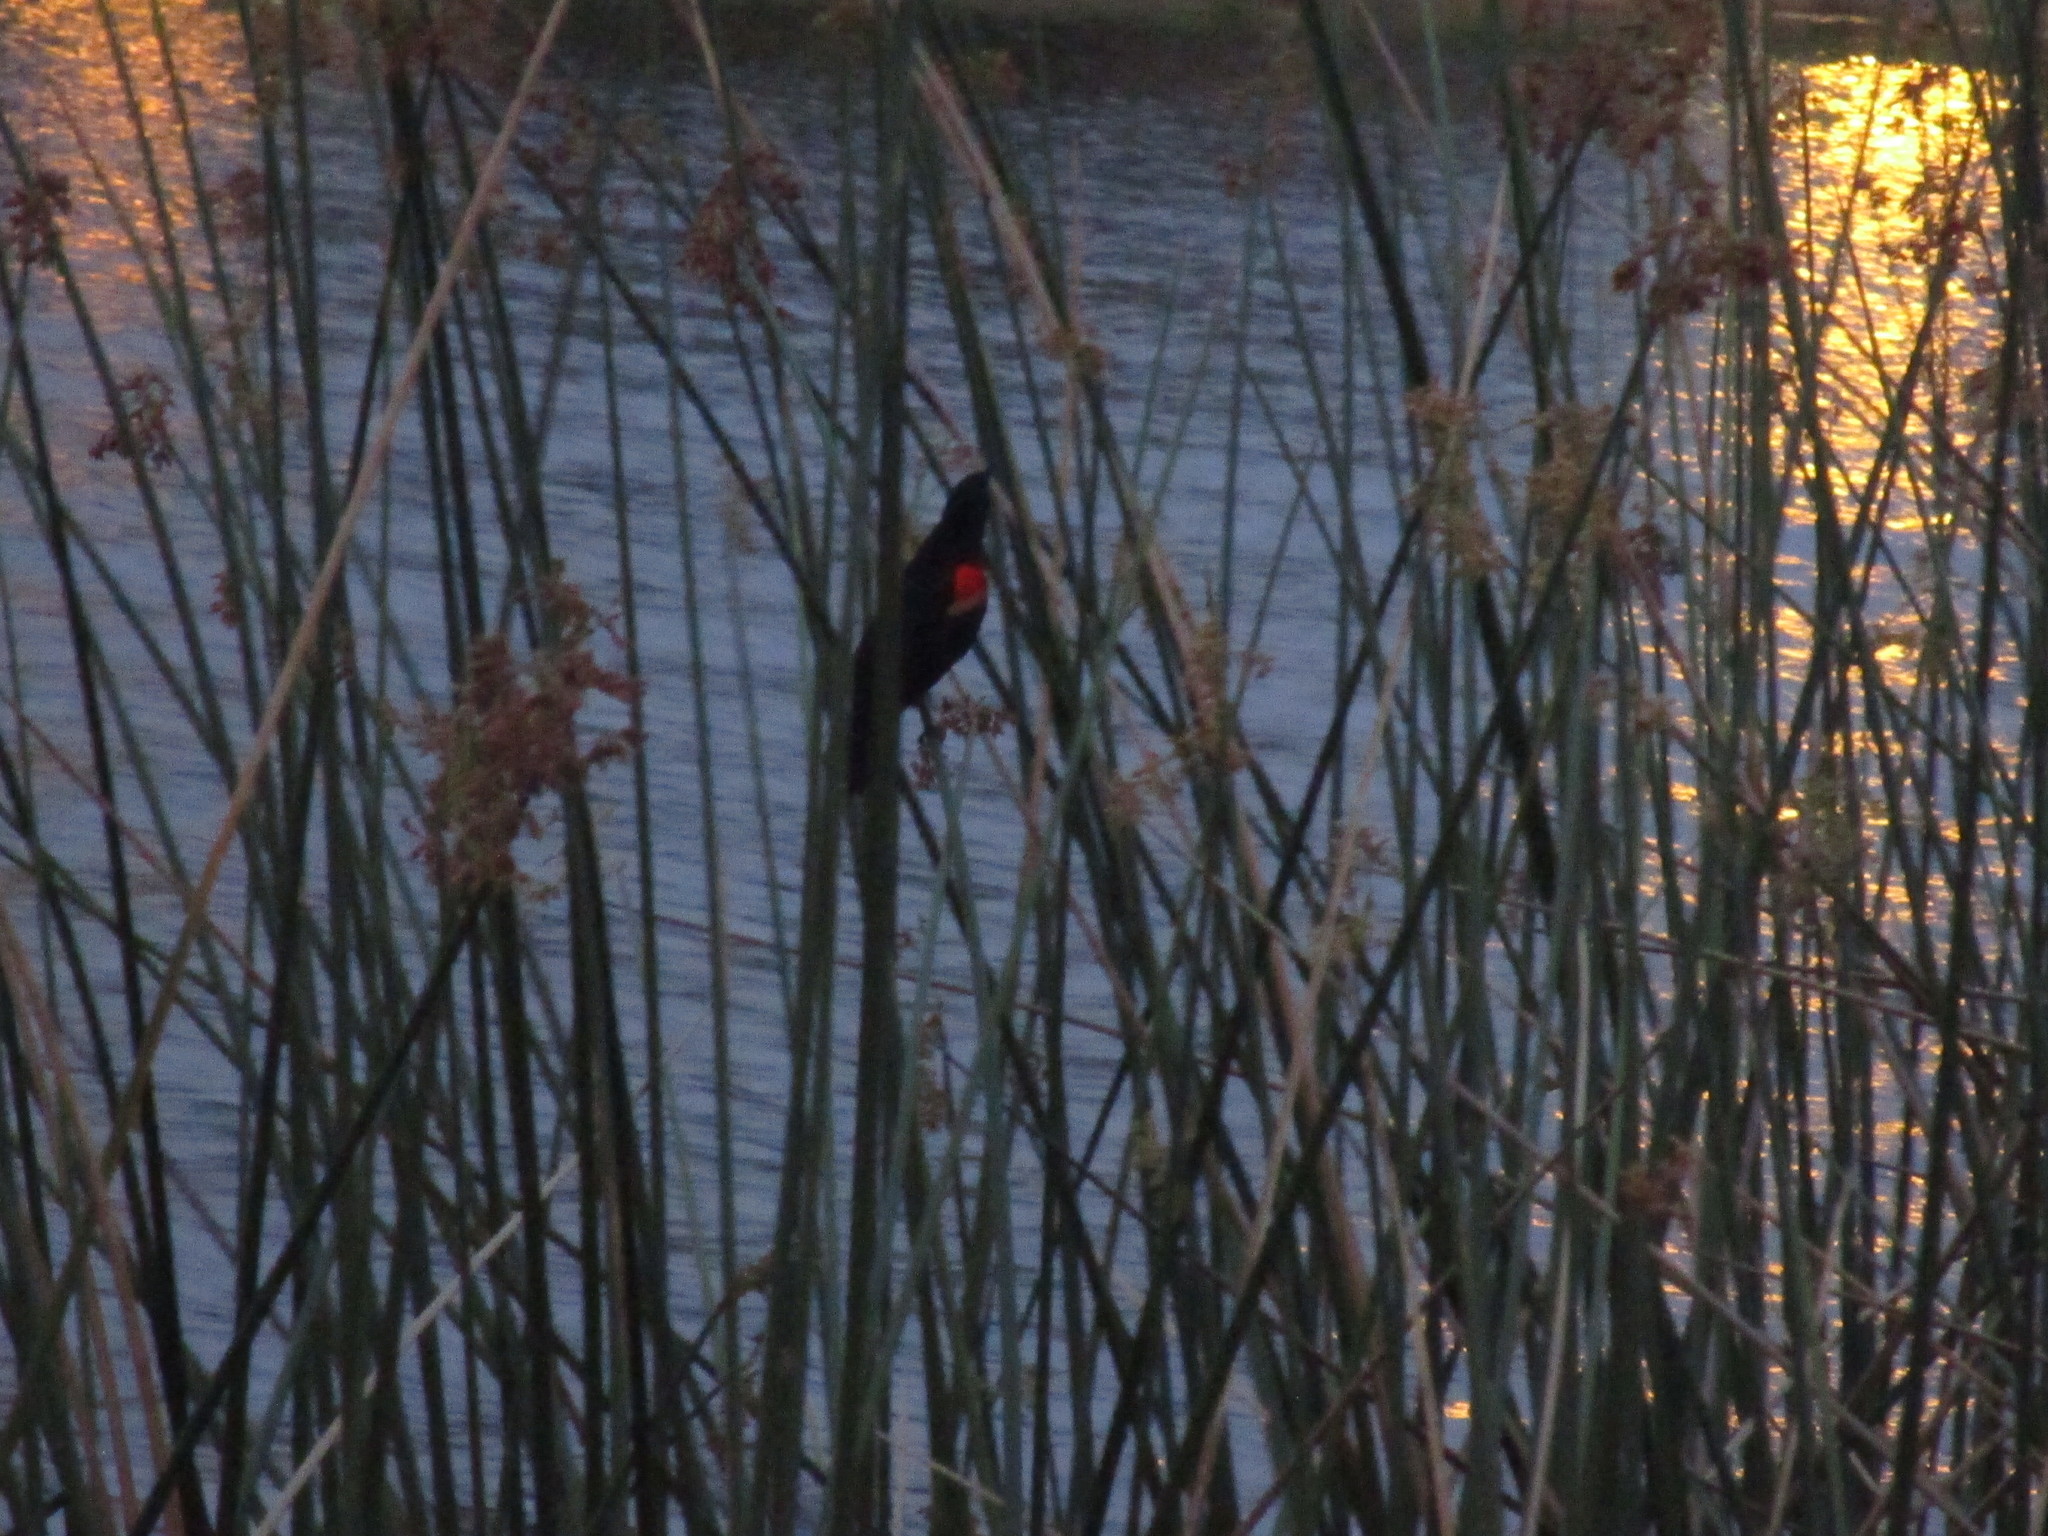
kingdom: Animalia
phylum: Chordata
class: Aves
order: Passeriformes
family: Icteridae
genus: Agelaius
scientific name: Agelaius phoeniceus
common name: Red-winged blackbird
